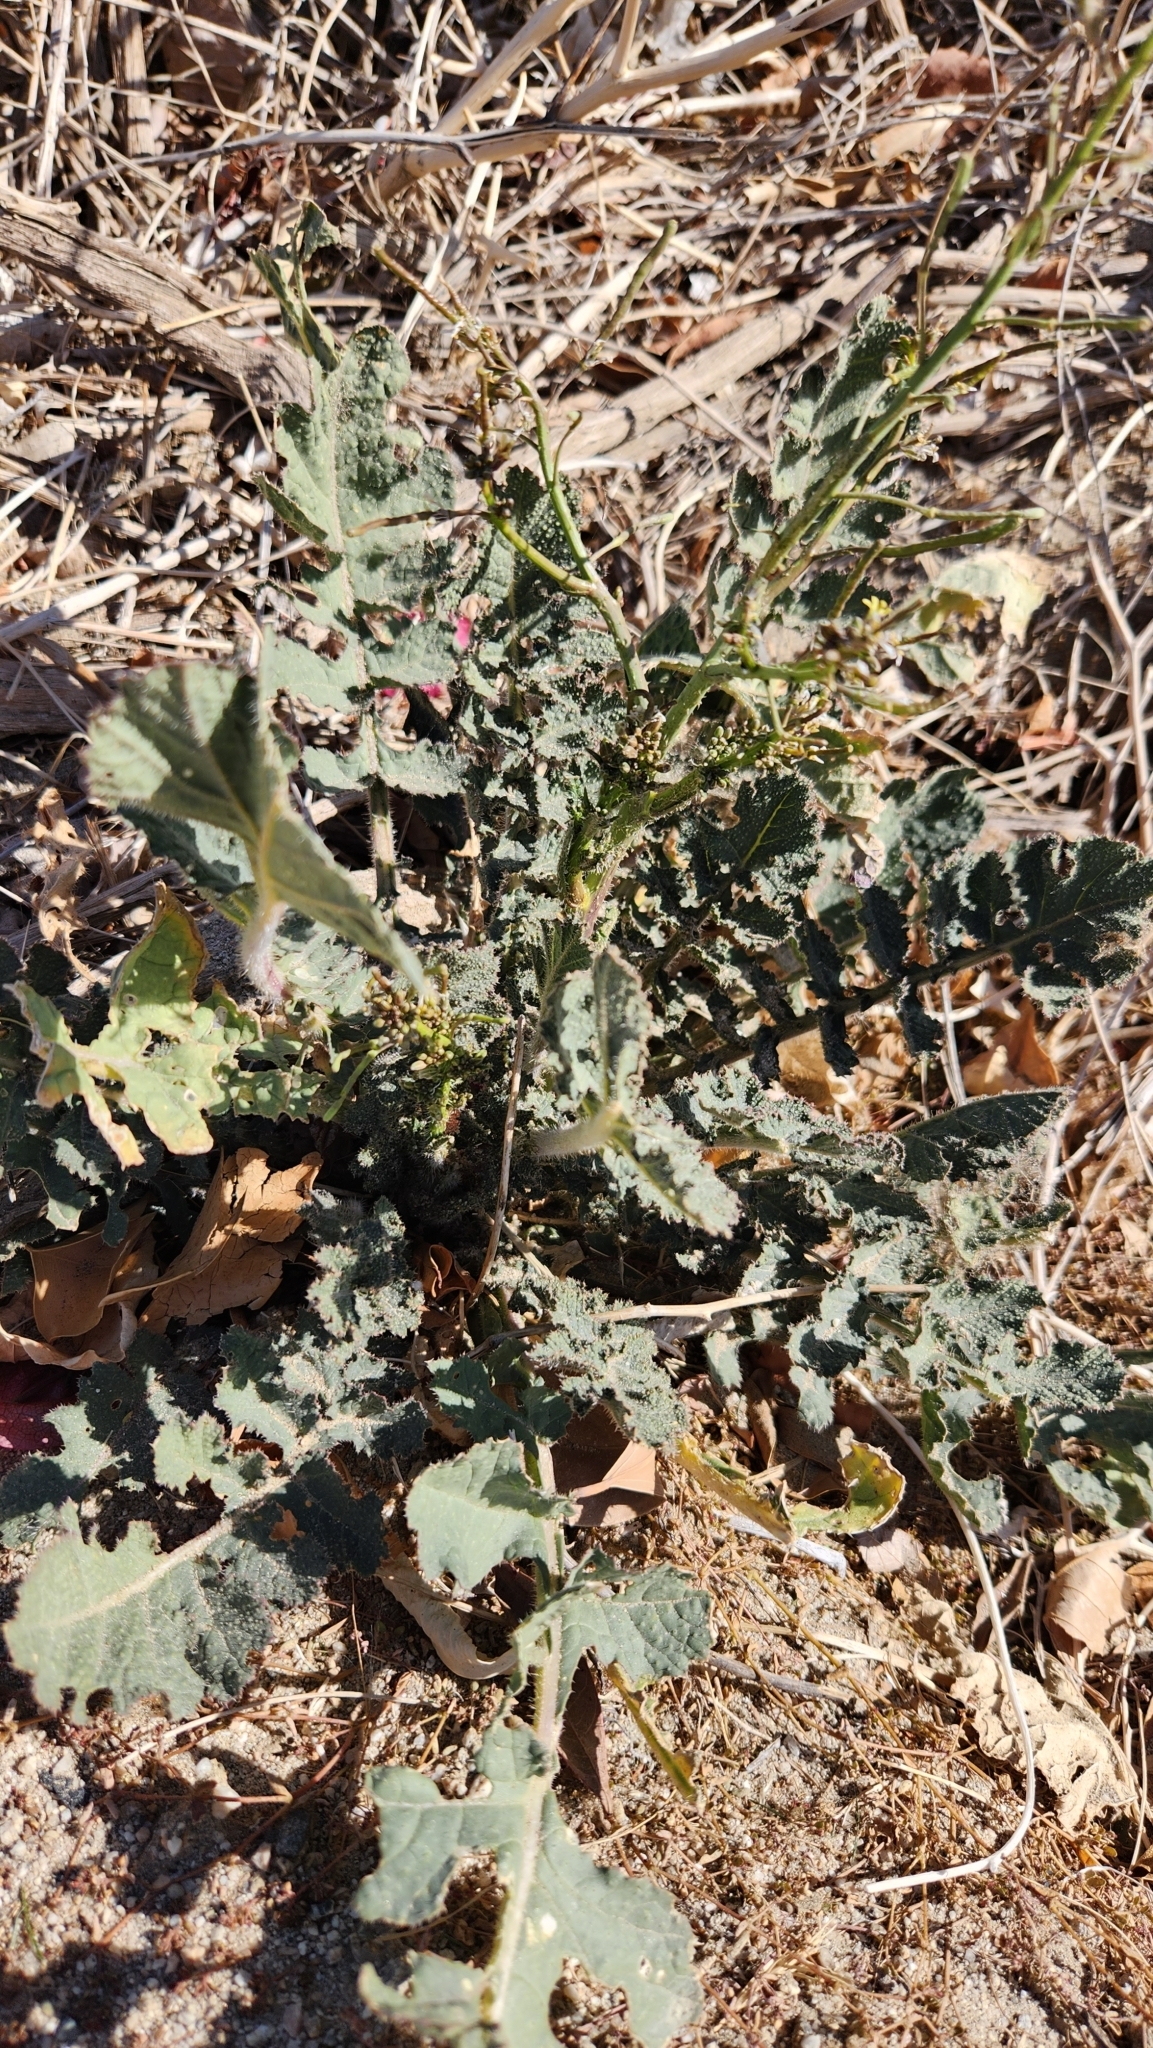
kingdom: Plantae
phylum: Tracheophyta
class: Magnoliopsida
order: Brassicales
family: Brassicaceae
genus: Brassica
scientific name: Brassica tournefortii
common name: Pale cabbage
